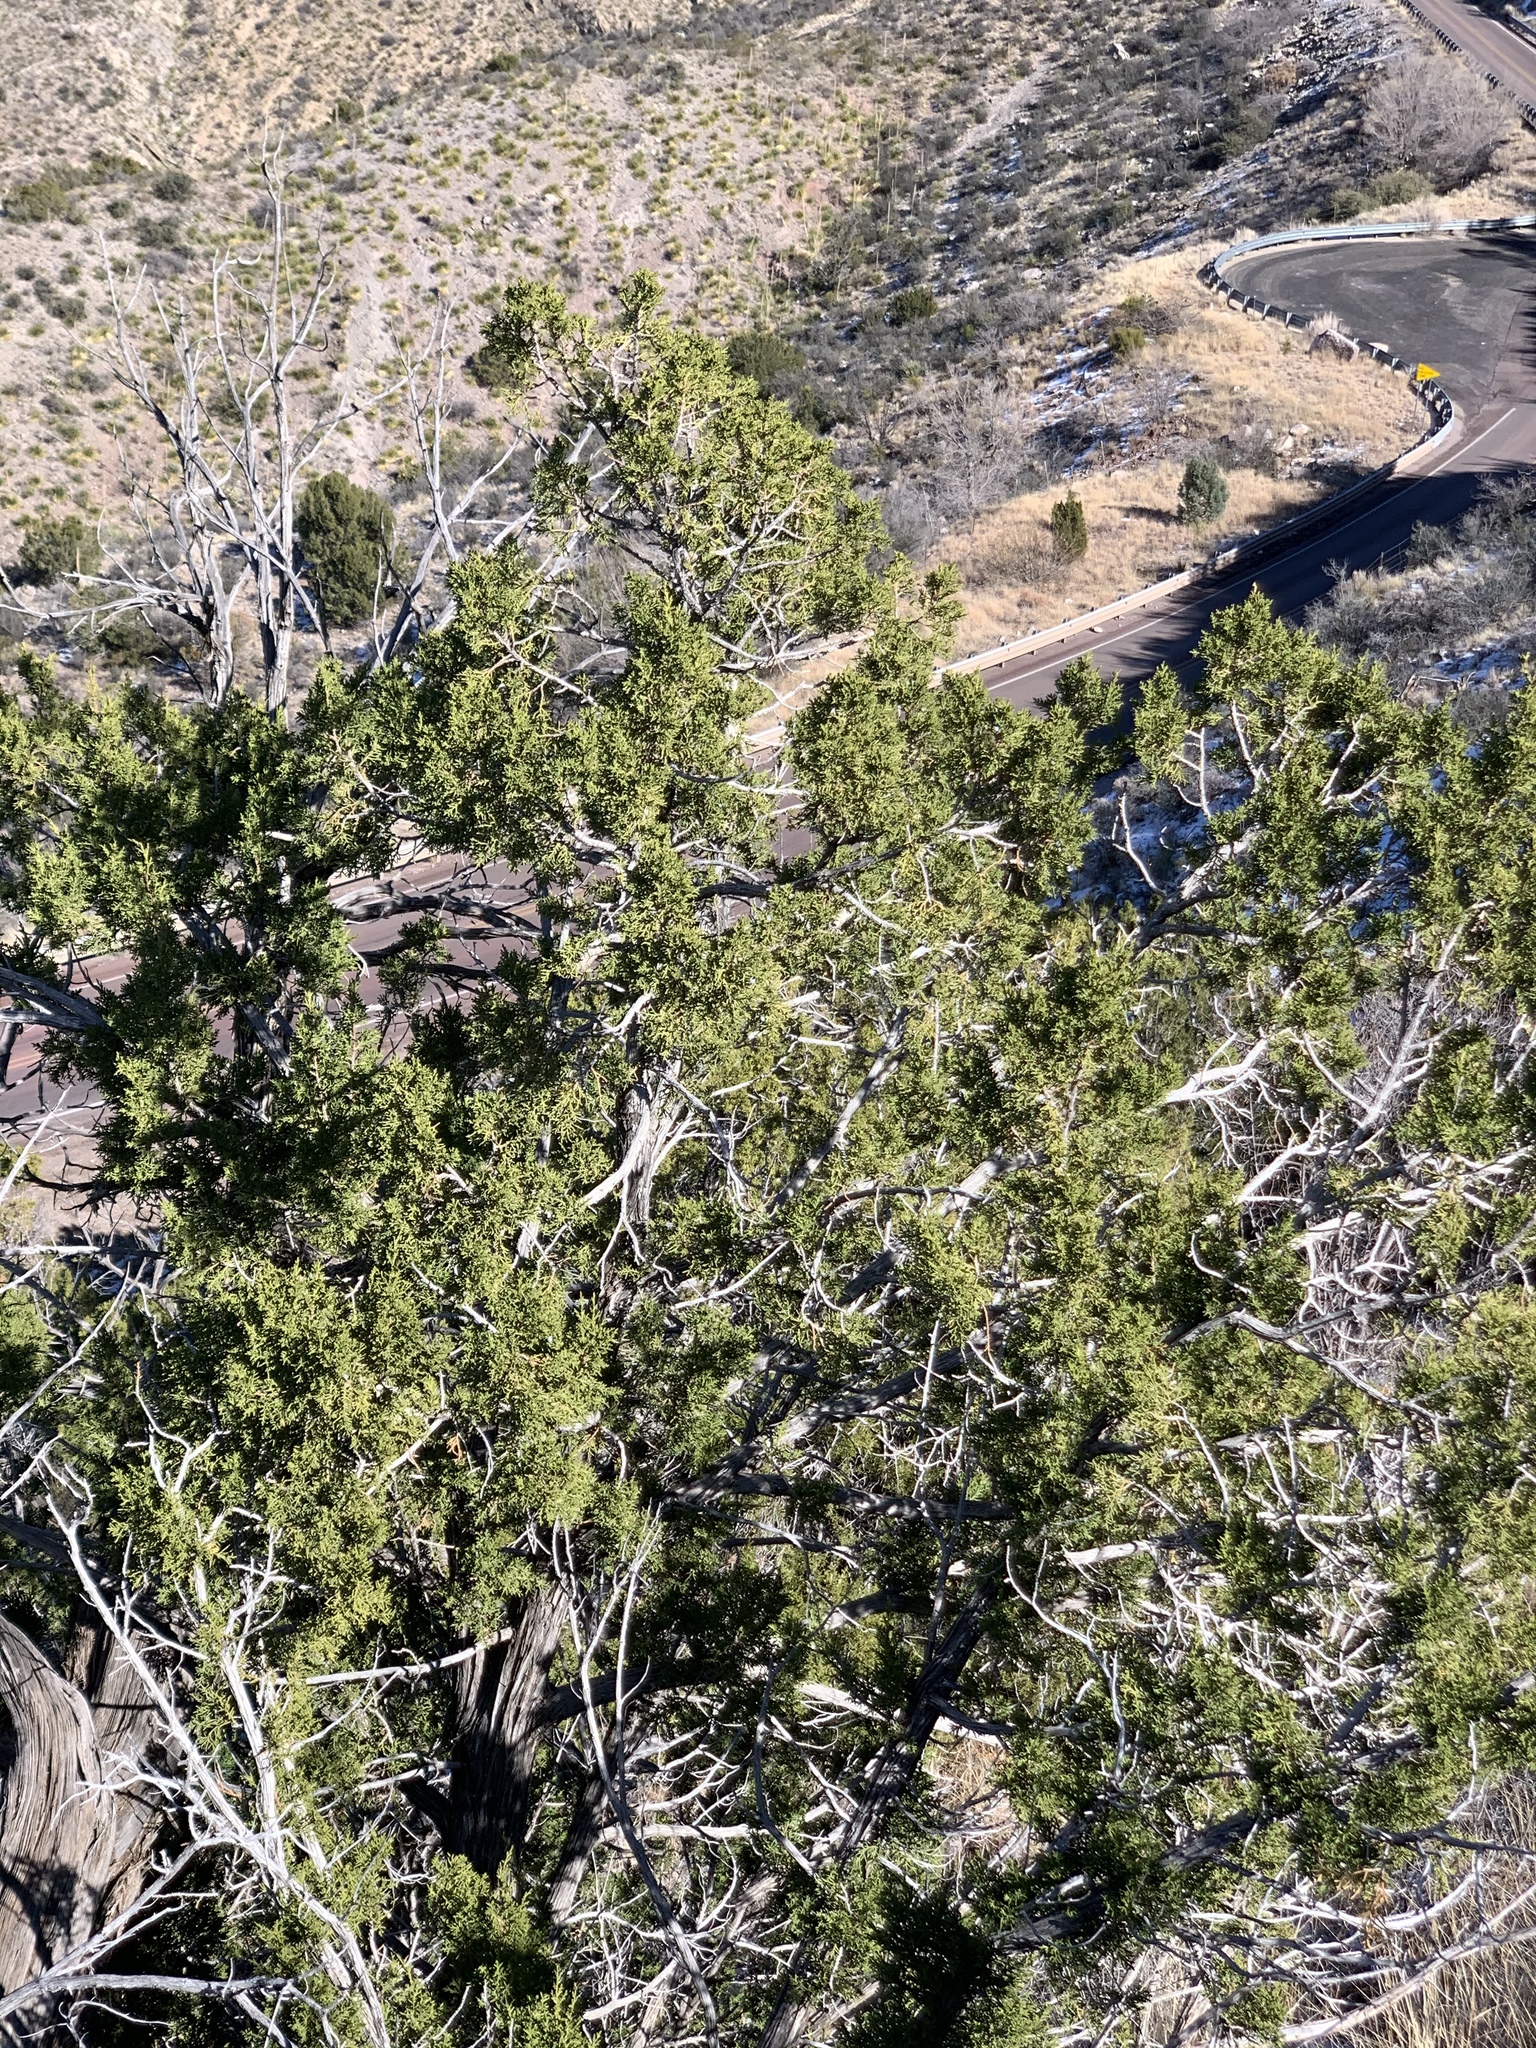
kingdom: Plantae
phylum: Tracheophyta
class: Pinopsida
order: Pinales
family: Cupressaceae
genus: Juniperus
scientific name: Juniperus monosperma
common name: One-seed juniper
